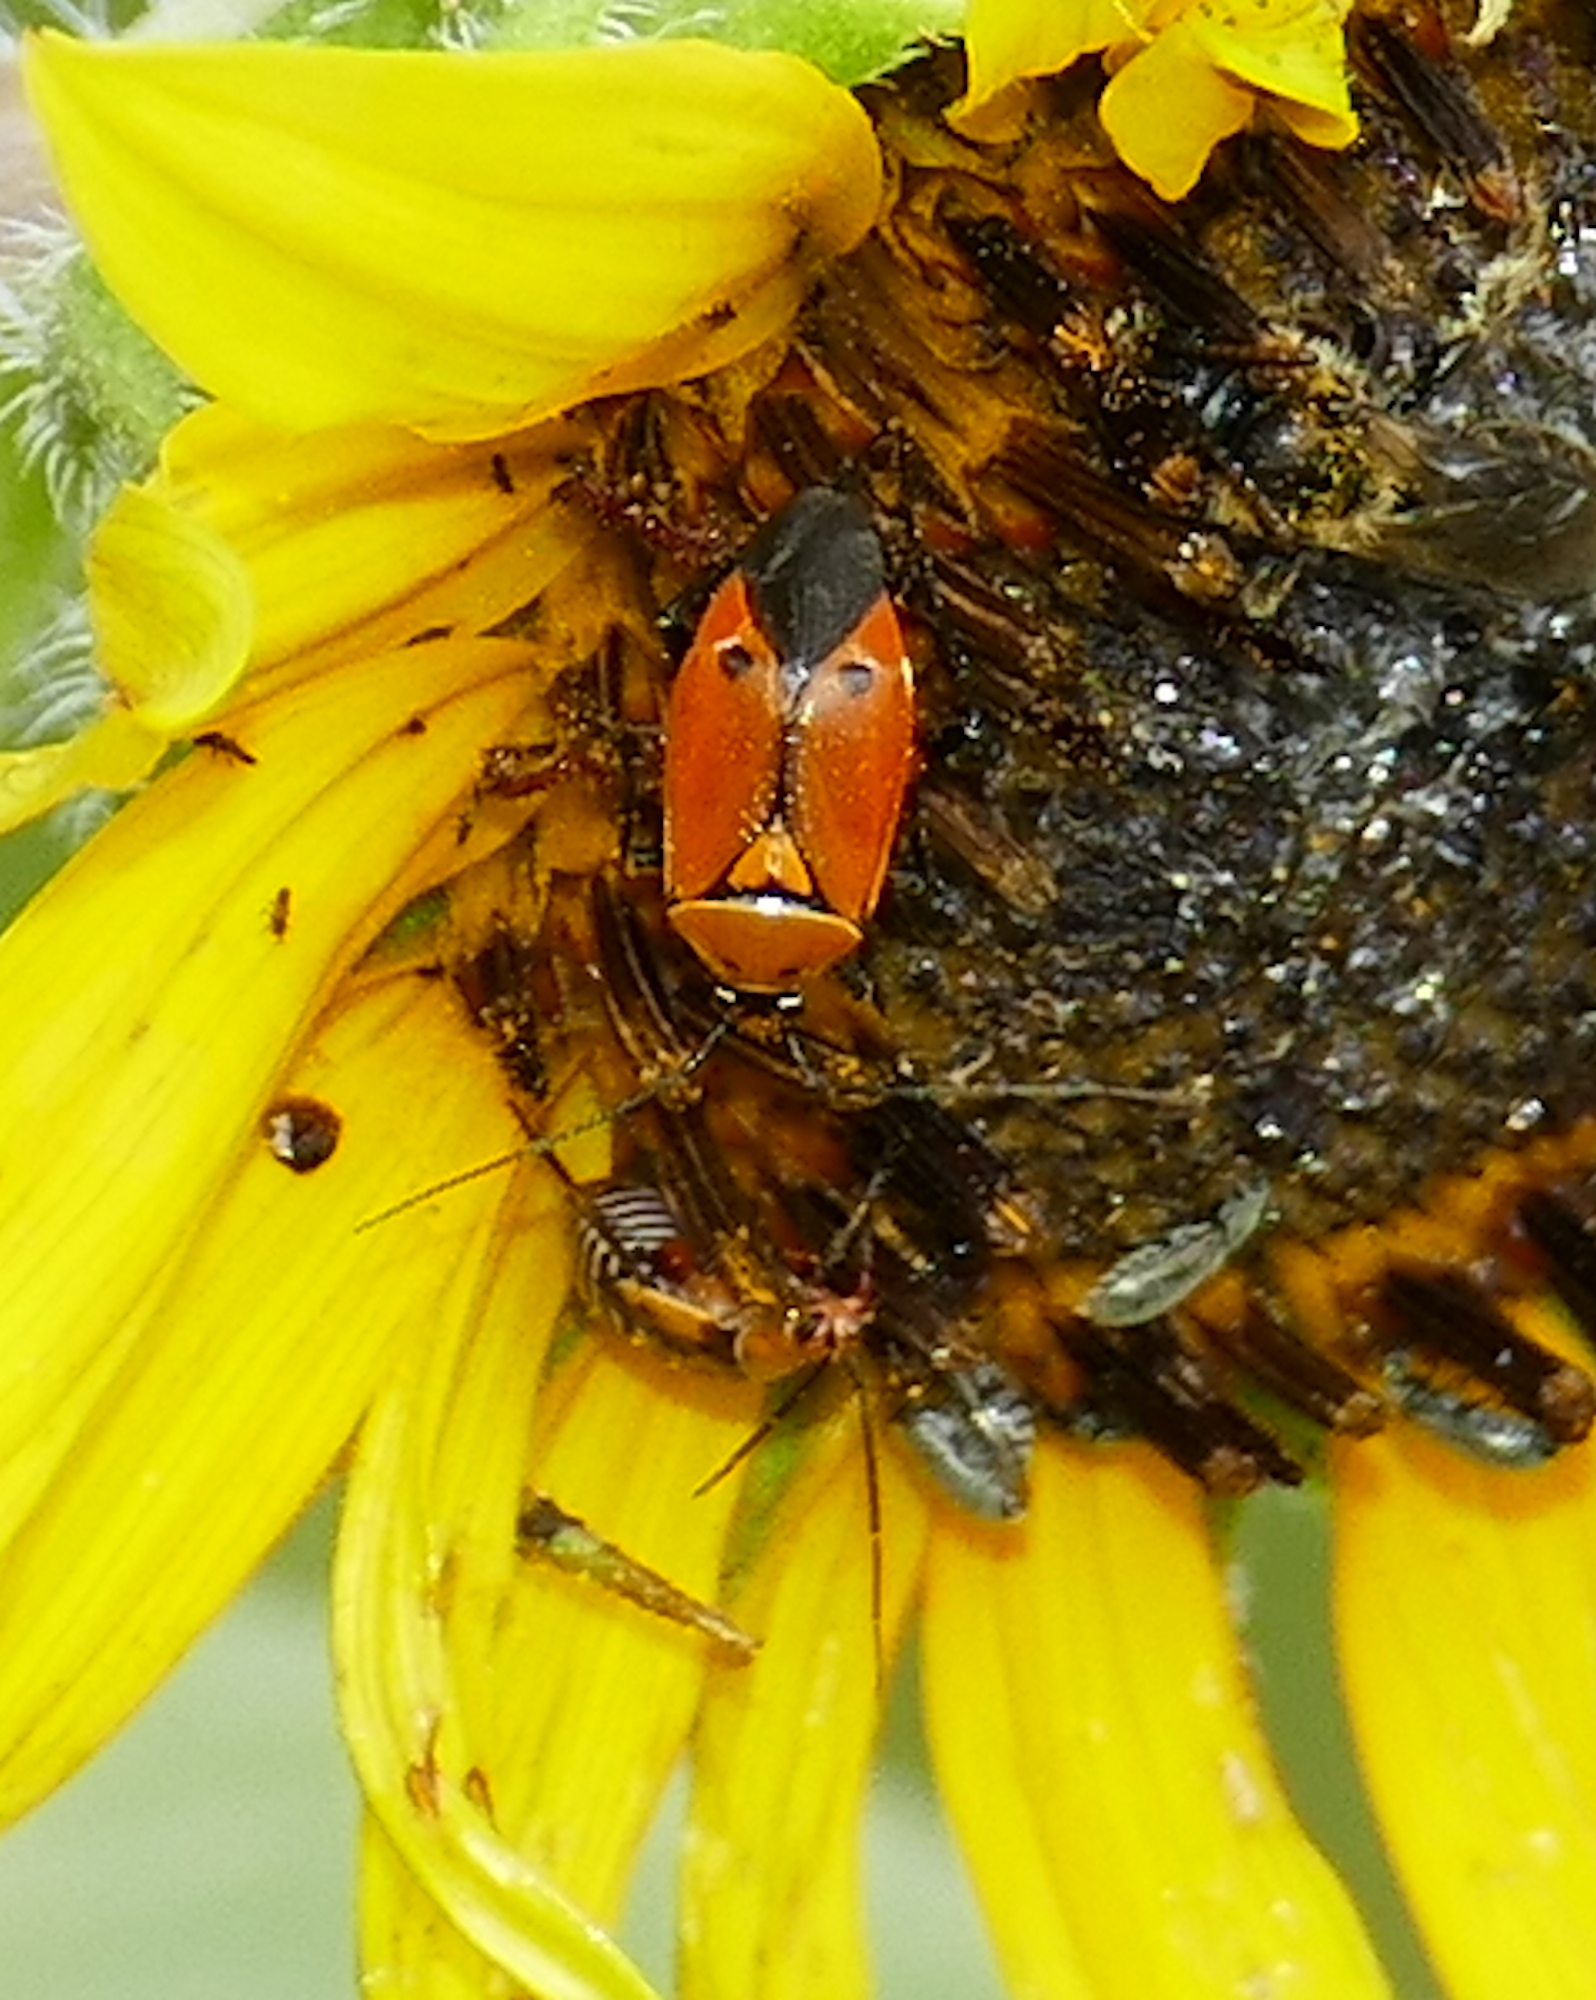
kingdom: Animalia
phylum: Arthropoda
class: Insecta
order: Hemiptera
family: Miridae
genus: Neocapsus
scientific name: Neocapsus fasciativentris
